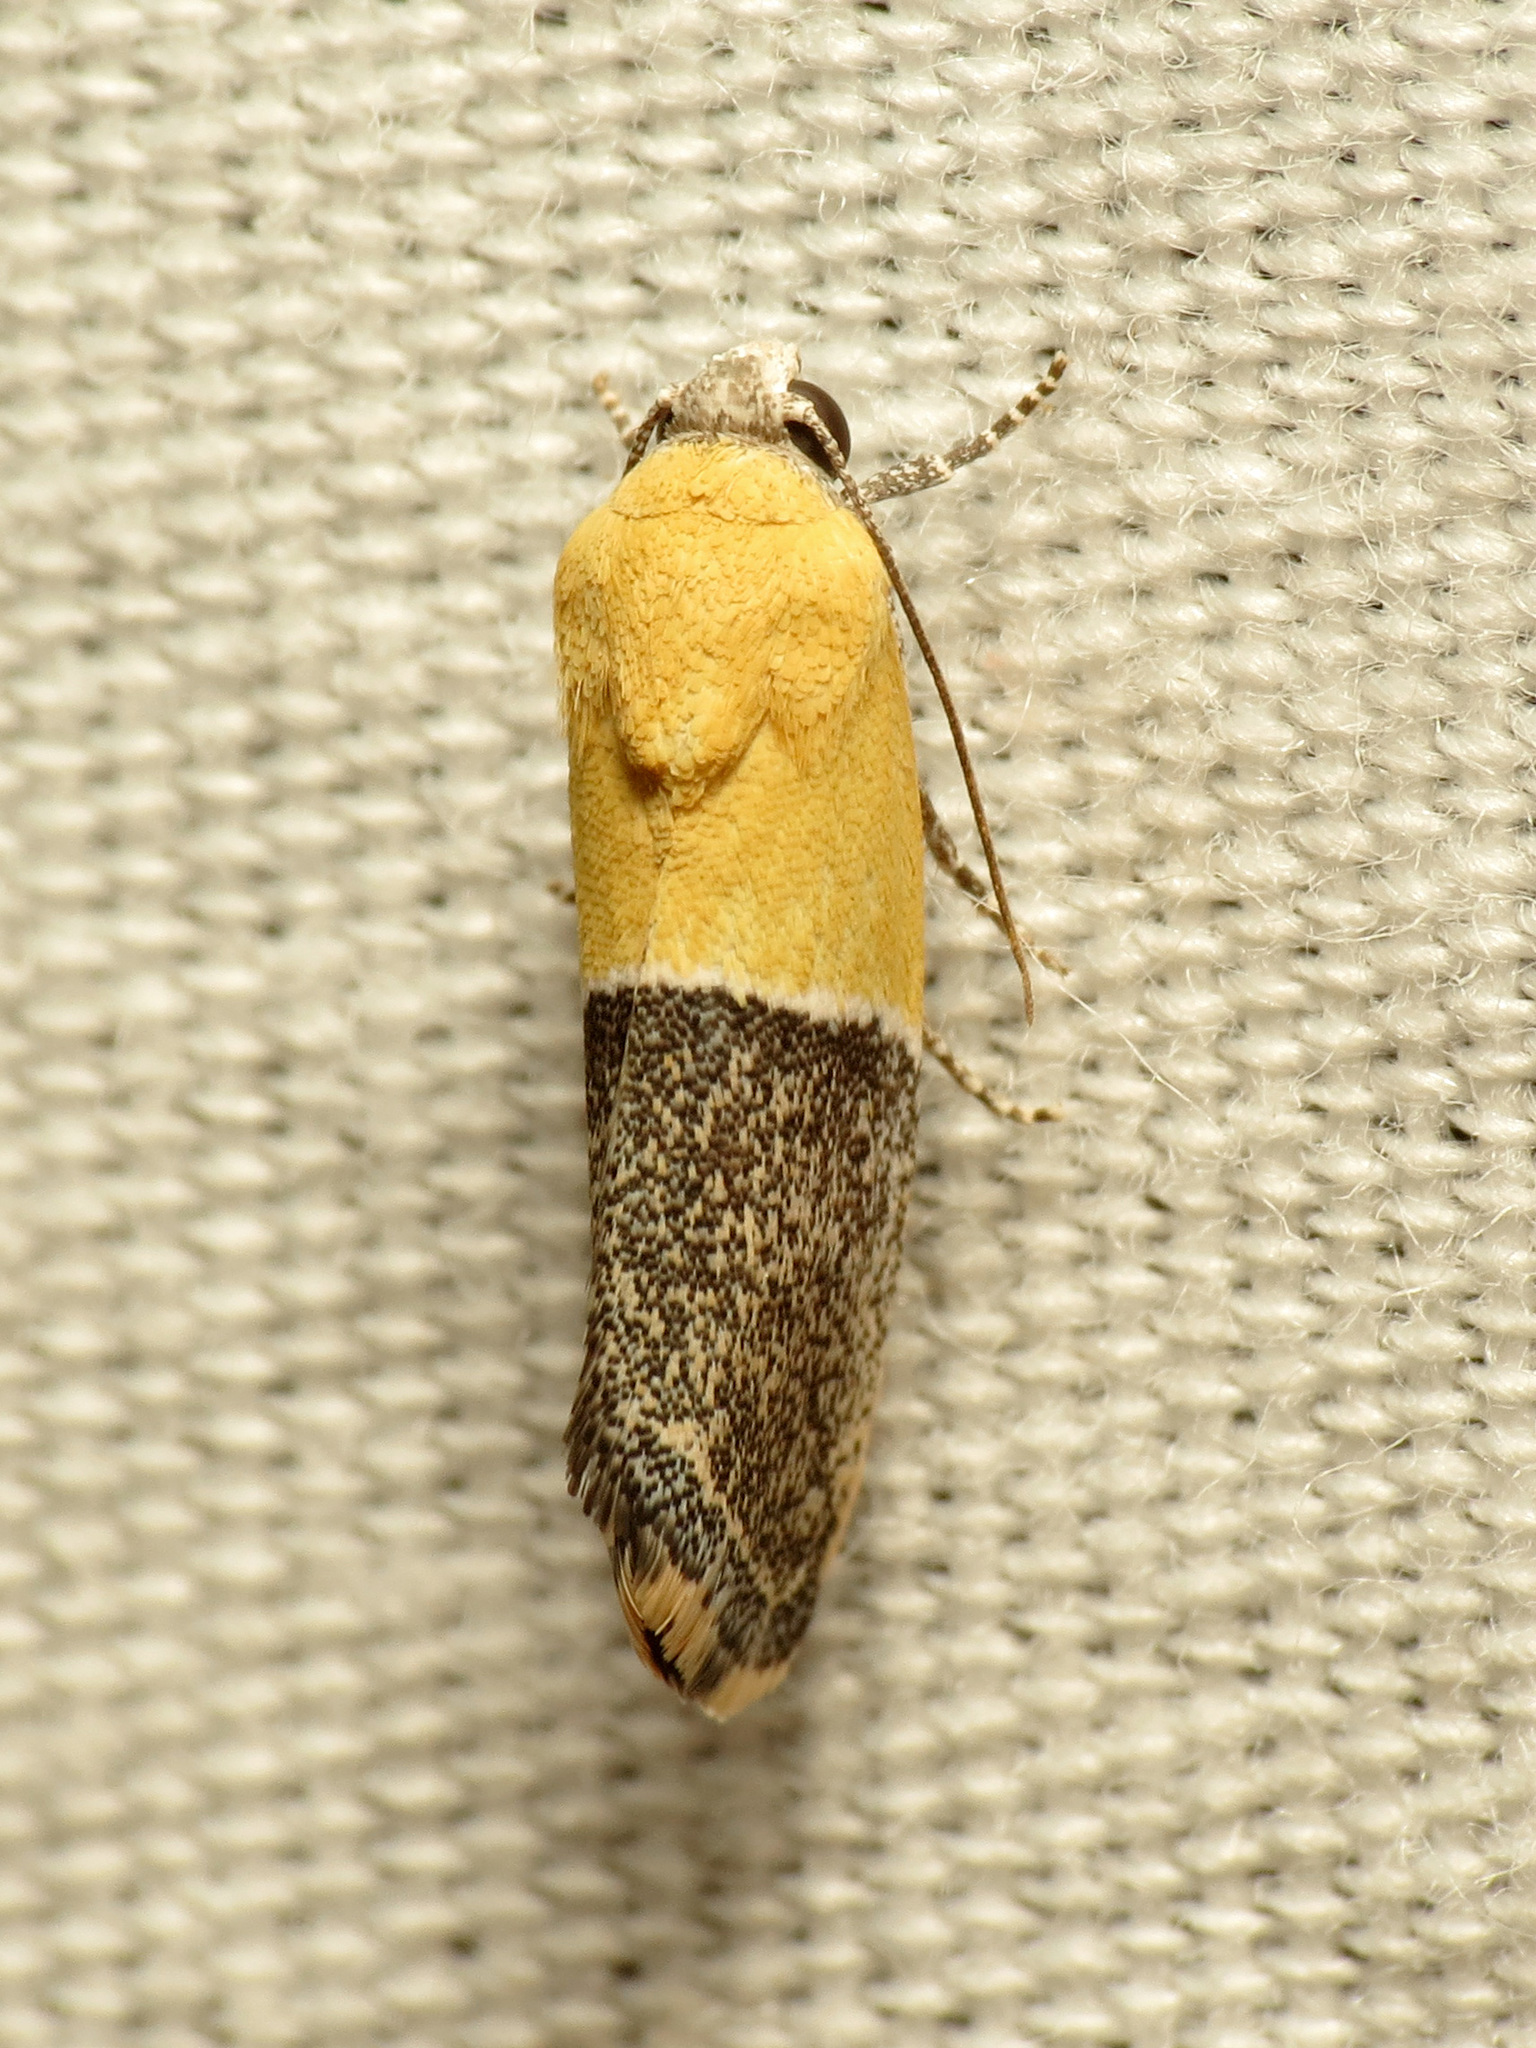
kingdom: Animalia
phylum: Arthropoda
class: Insecta
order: Lepidoptera
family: Noctuidae
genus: Acontia
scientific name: Acontia clausula
